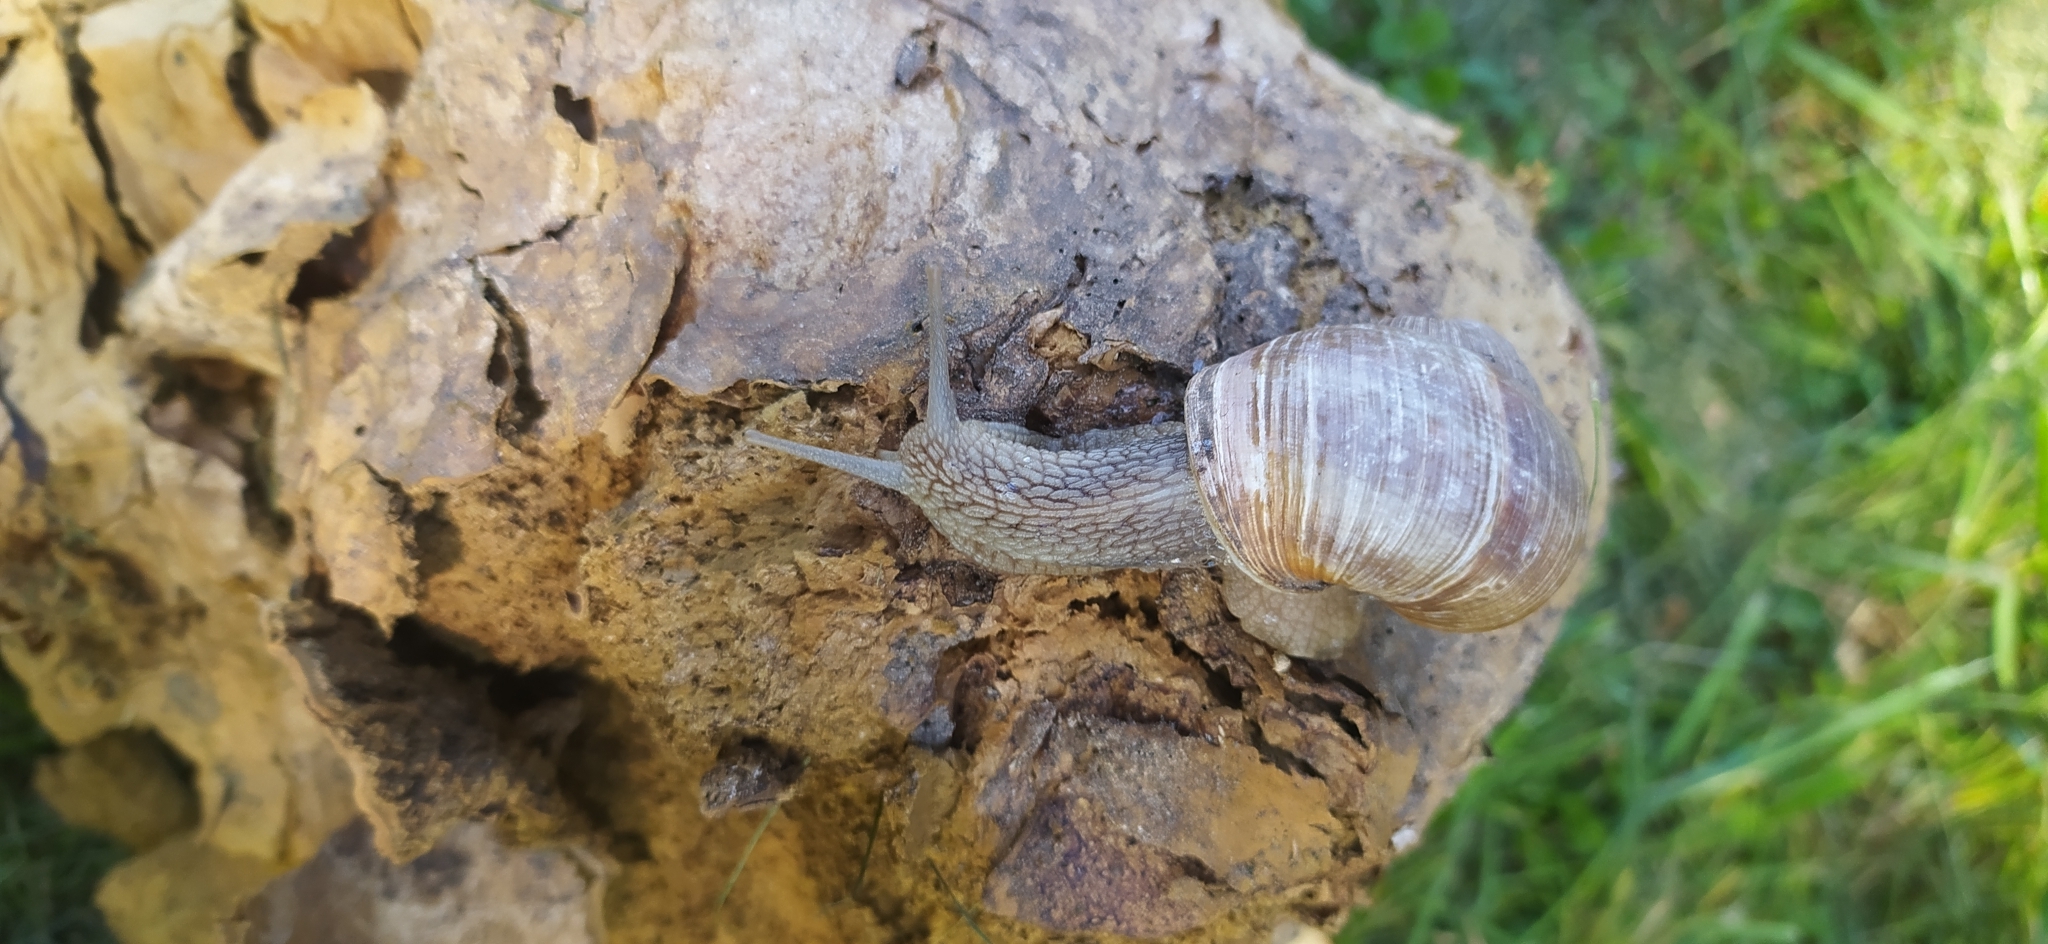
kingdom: Animalia
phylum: Mollusca
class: Gastropoda
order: Stylommatophora
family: Helicidae
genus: Helix
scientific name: Helix pomatia
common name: Roman snail
